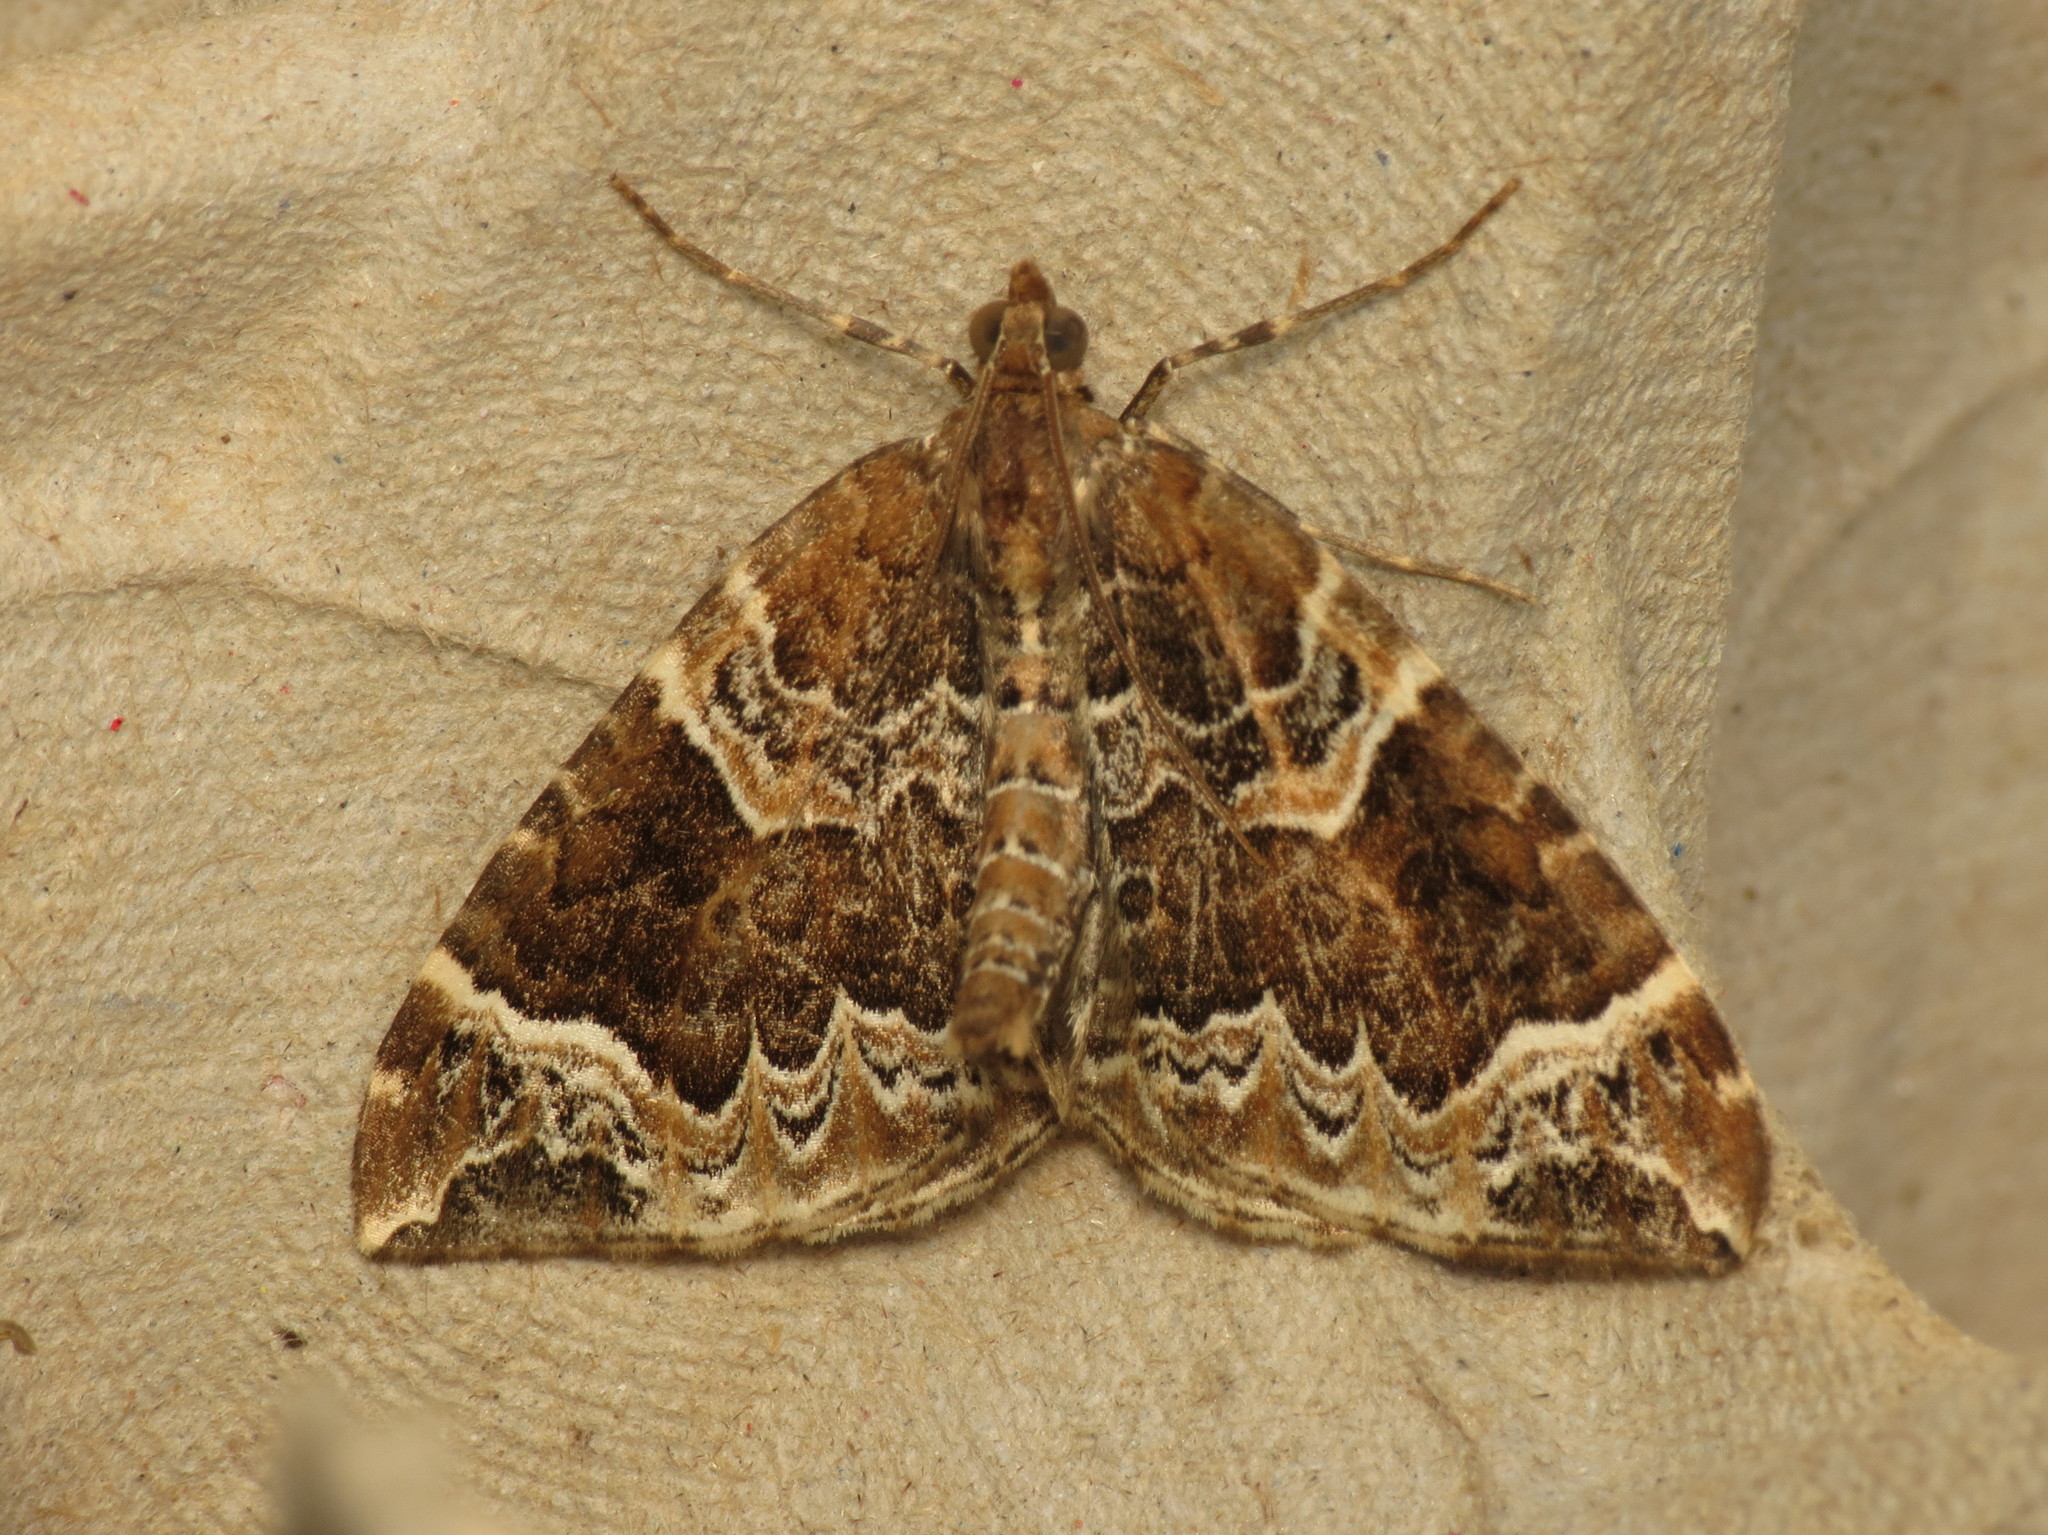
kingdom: Animalia
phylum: Arthropoda
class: Insecta
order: Lepidoptera
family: Geometridae
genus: Eulithis
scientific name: Eulithis prunata
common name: Phoenix
